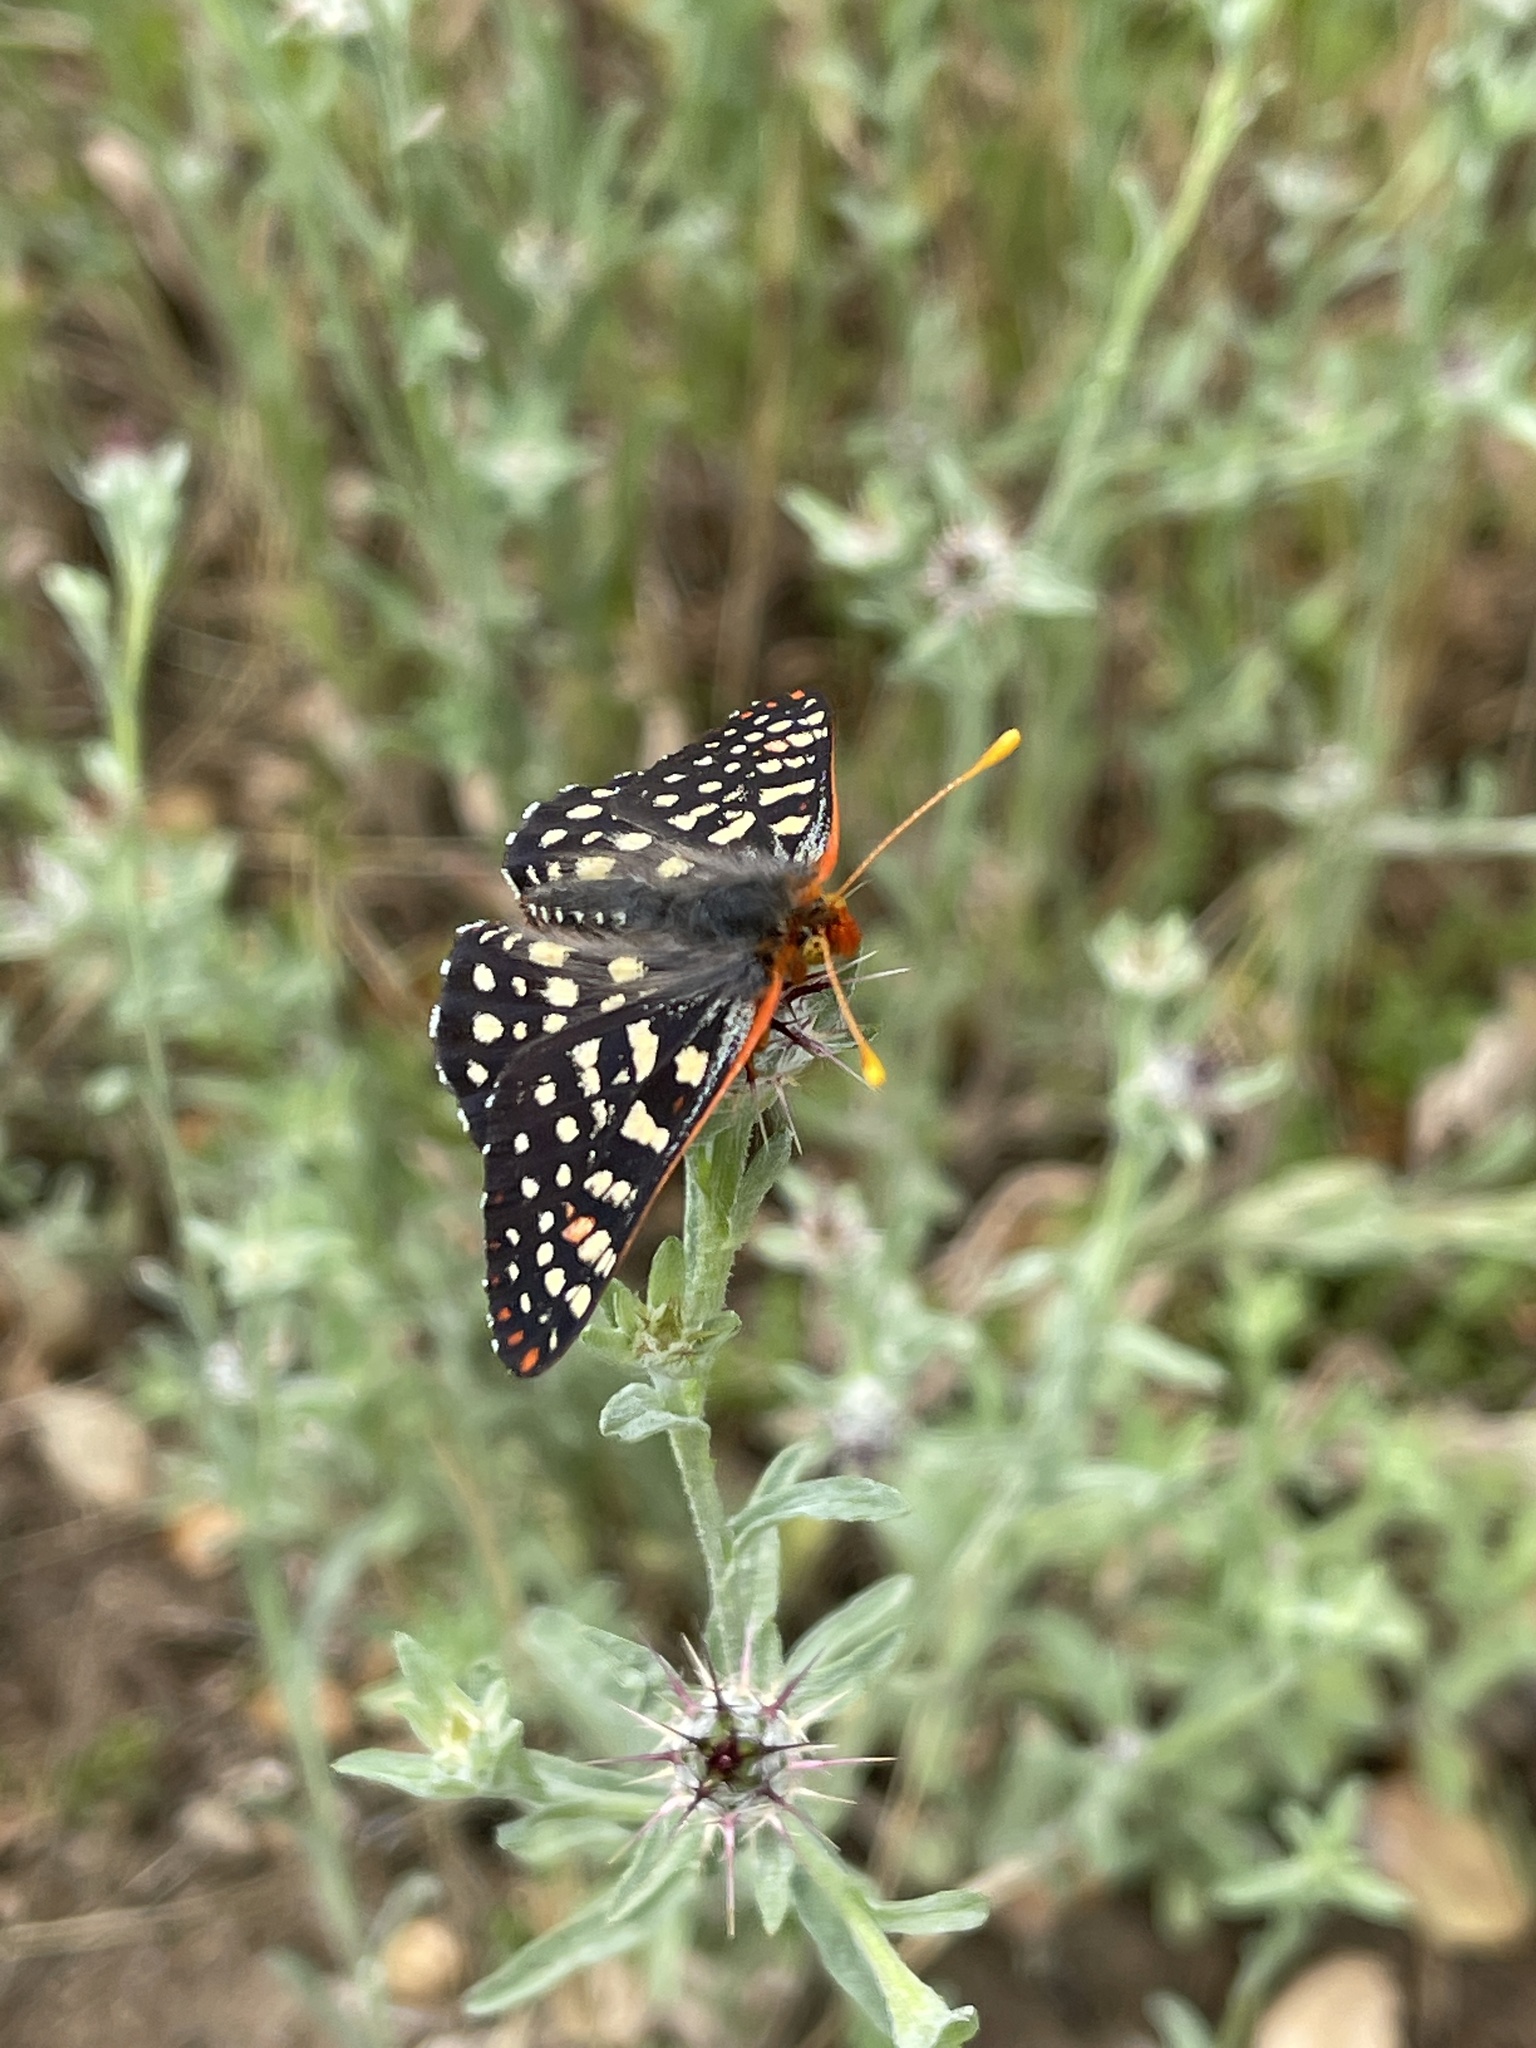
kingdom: Animalia
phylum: Arthropoda
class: Insecta
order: Lepidoptera
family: Nymphalidae
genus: Occidryas
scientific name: Occidryas chalcedona
